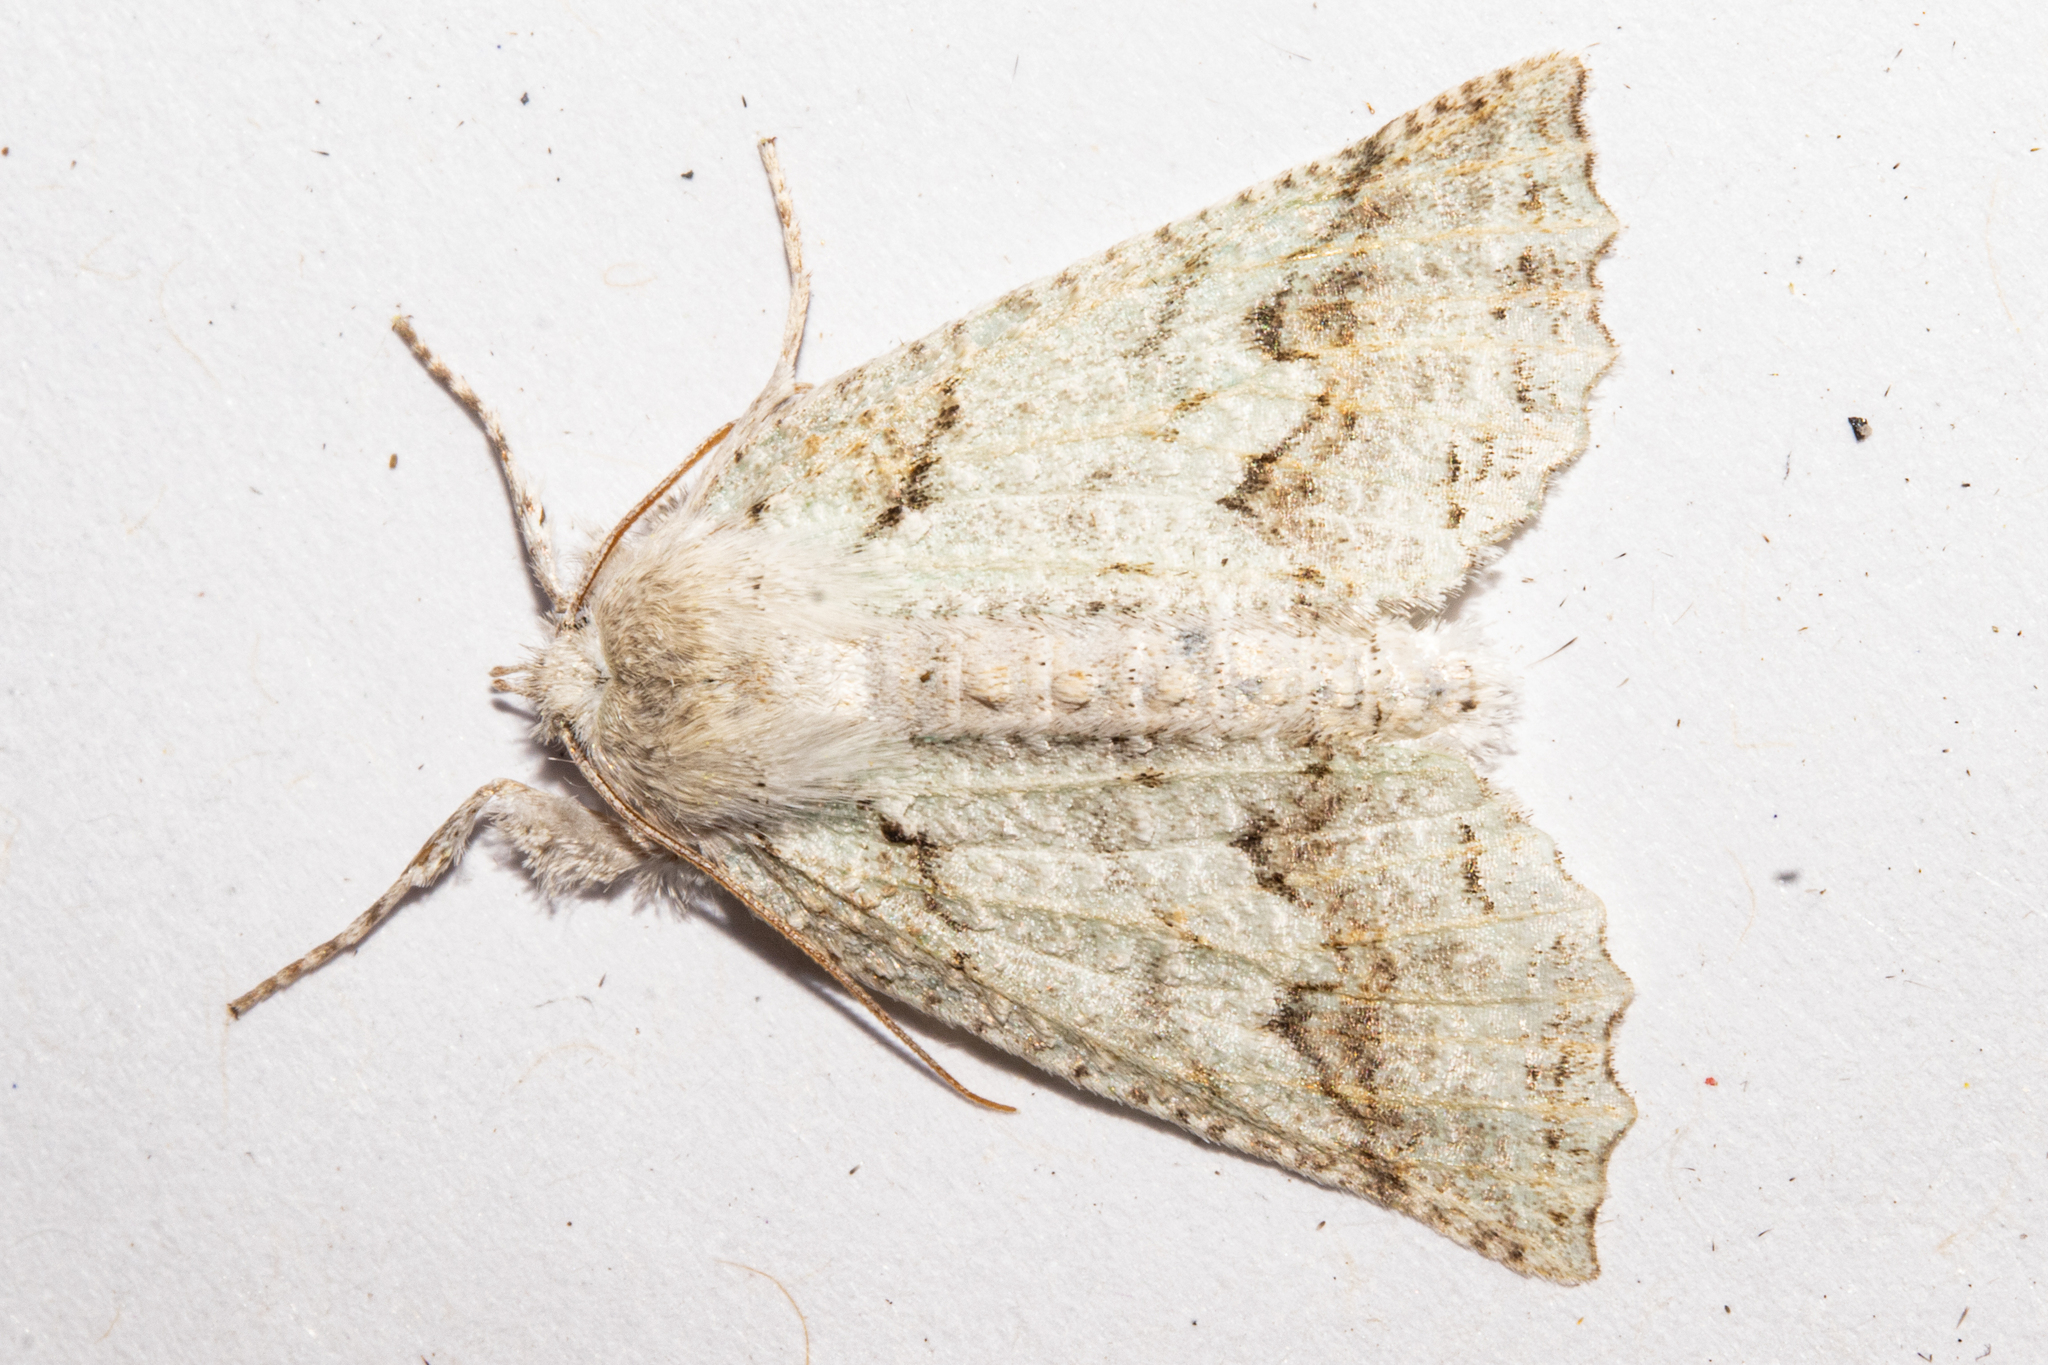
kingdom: Animalia
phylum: Arthropoda
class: Insecta
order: Lepidoptera
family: Geometridae
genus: Declana
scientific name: Declana niveata
